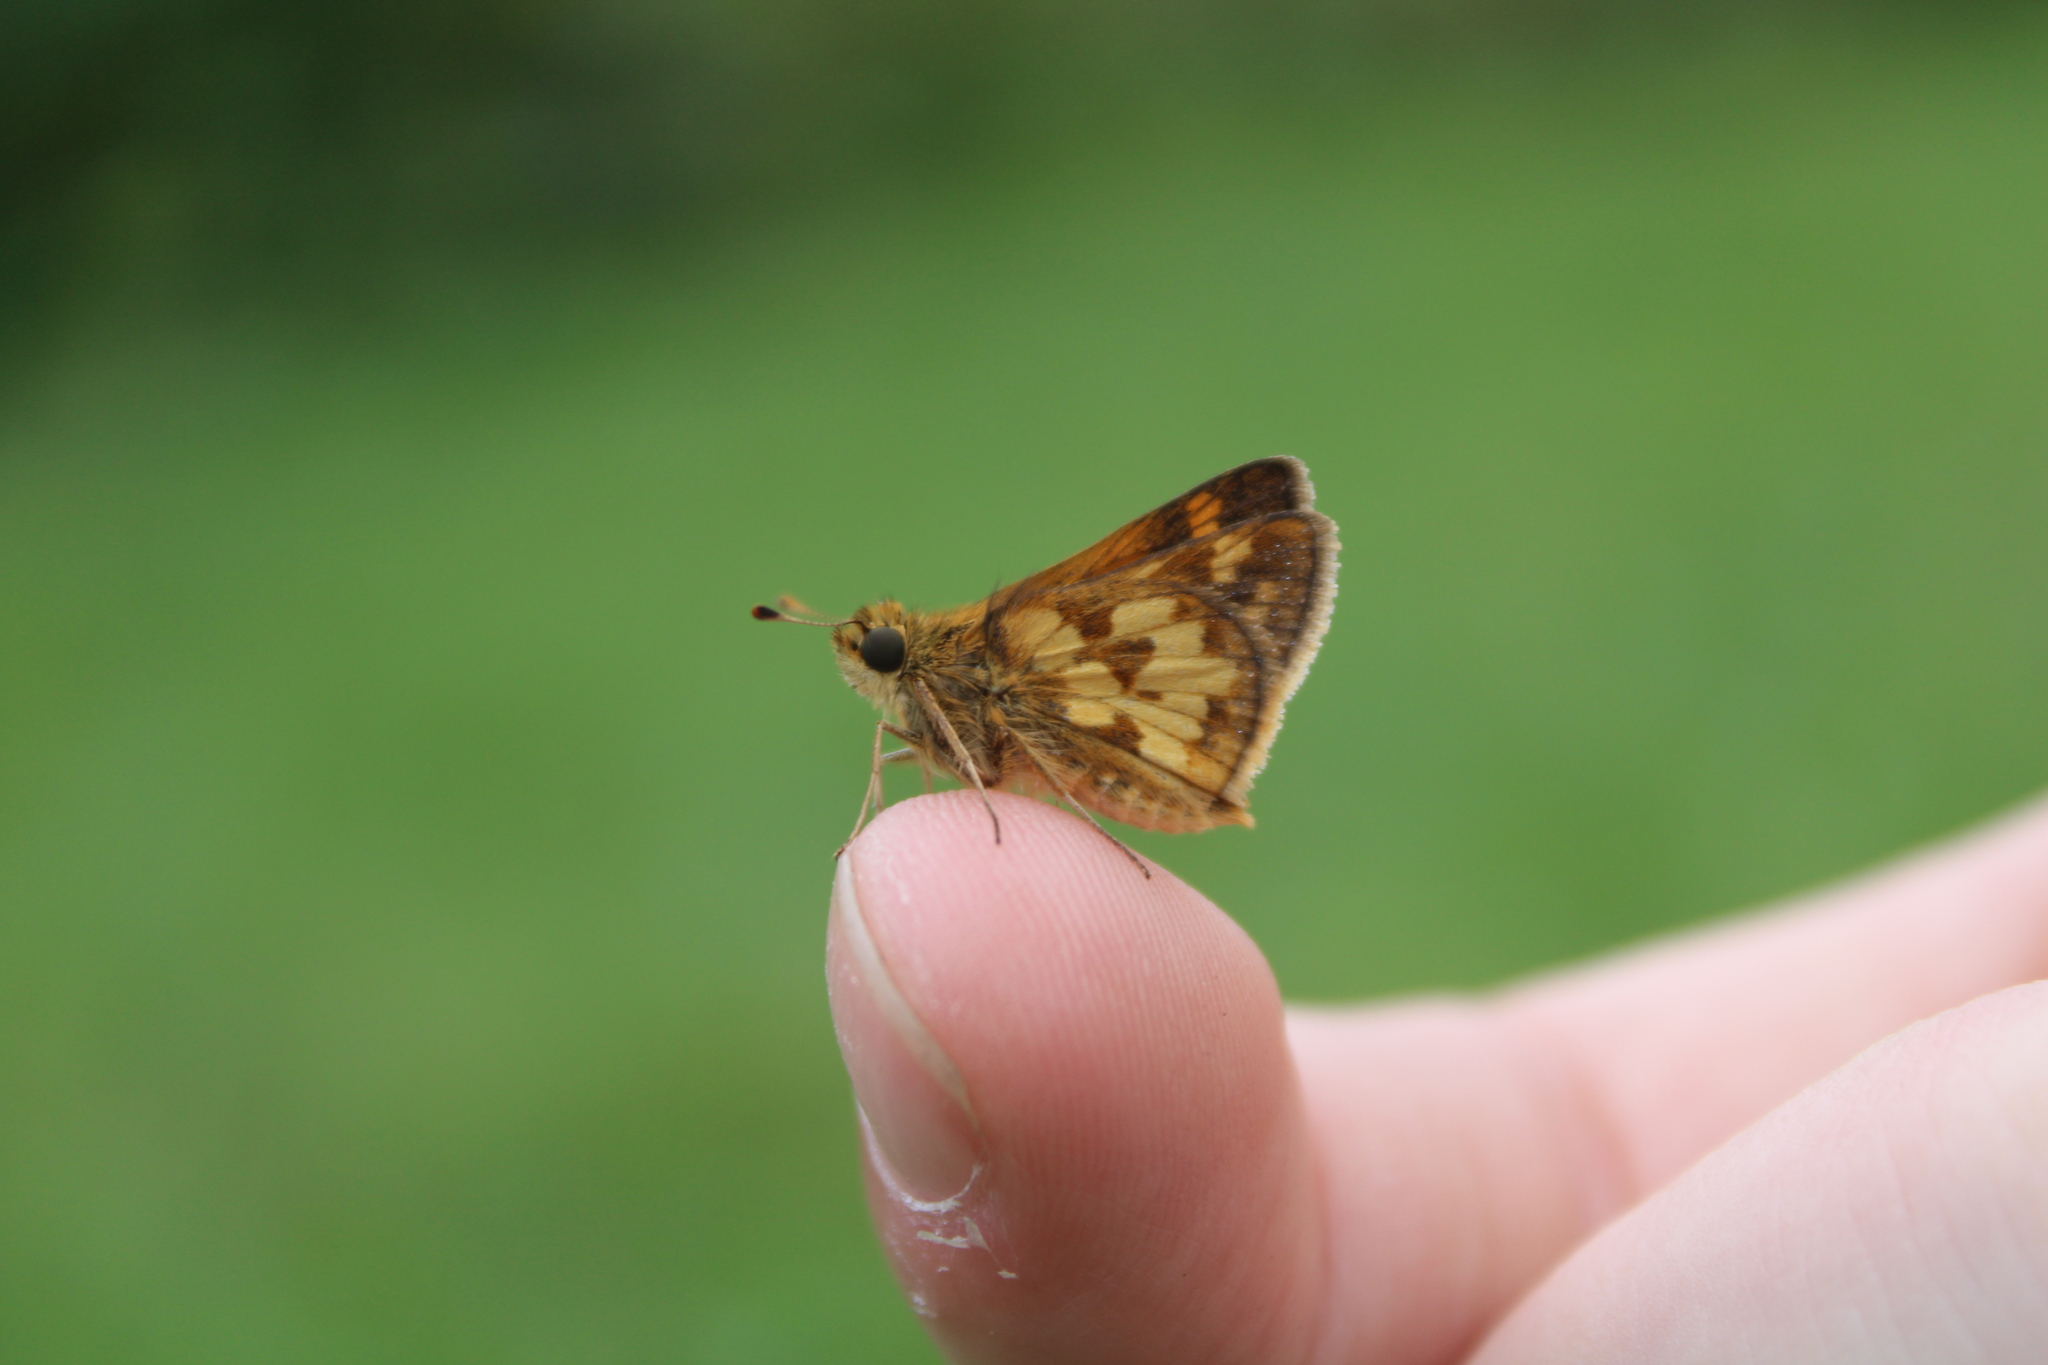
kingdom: Animalia
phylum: Arthropoda
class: Insecta
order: Lepidoptera
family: Hesperiidae
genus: Polites
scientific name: Polites coras
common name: Peck's skipper
